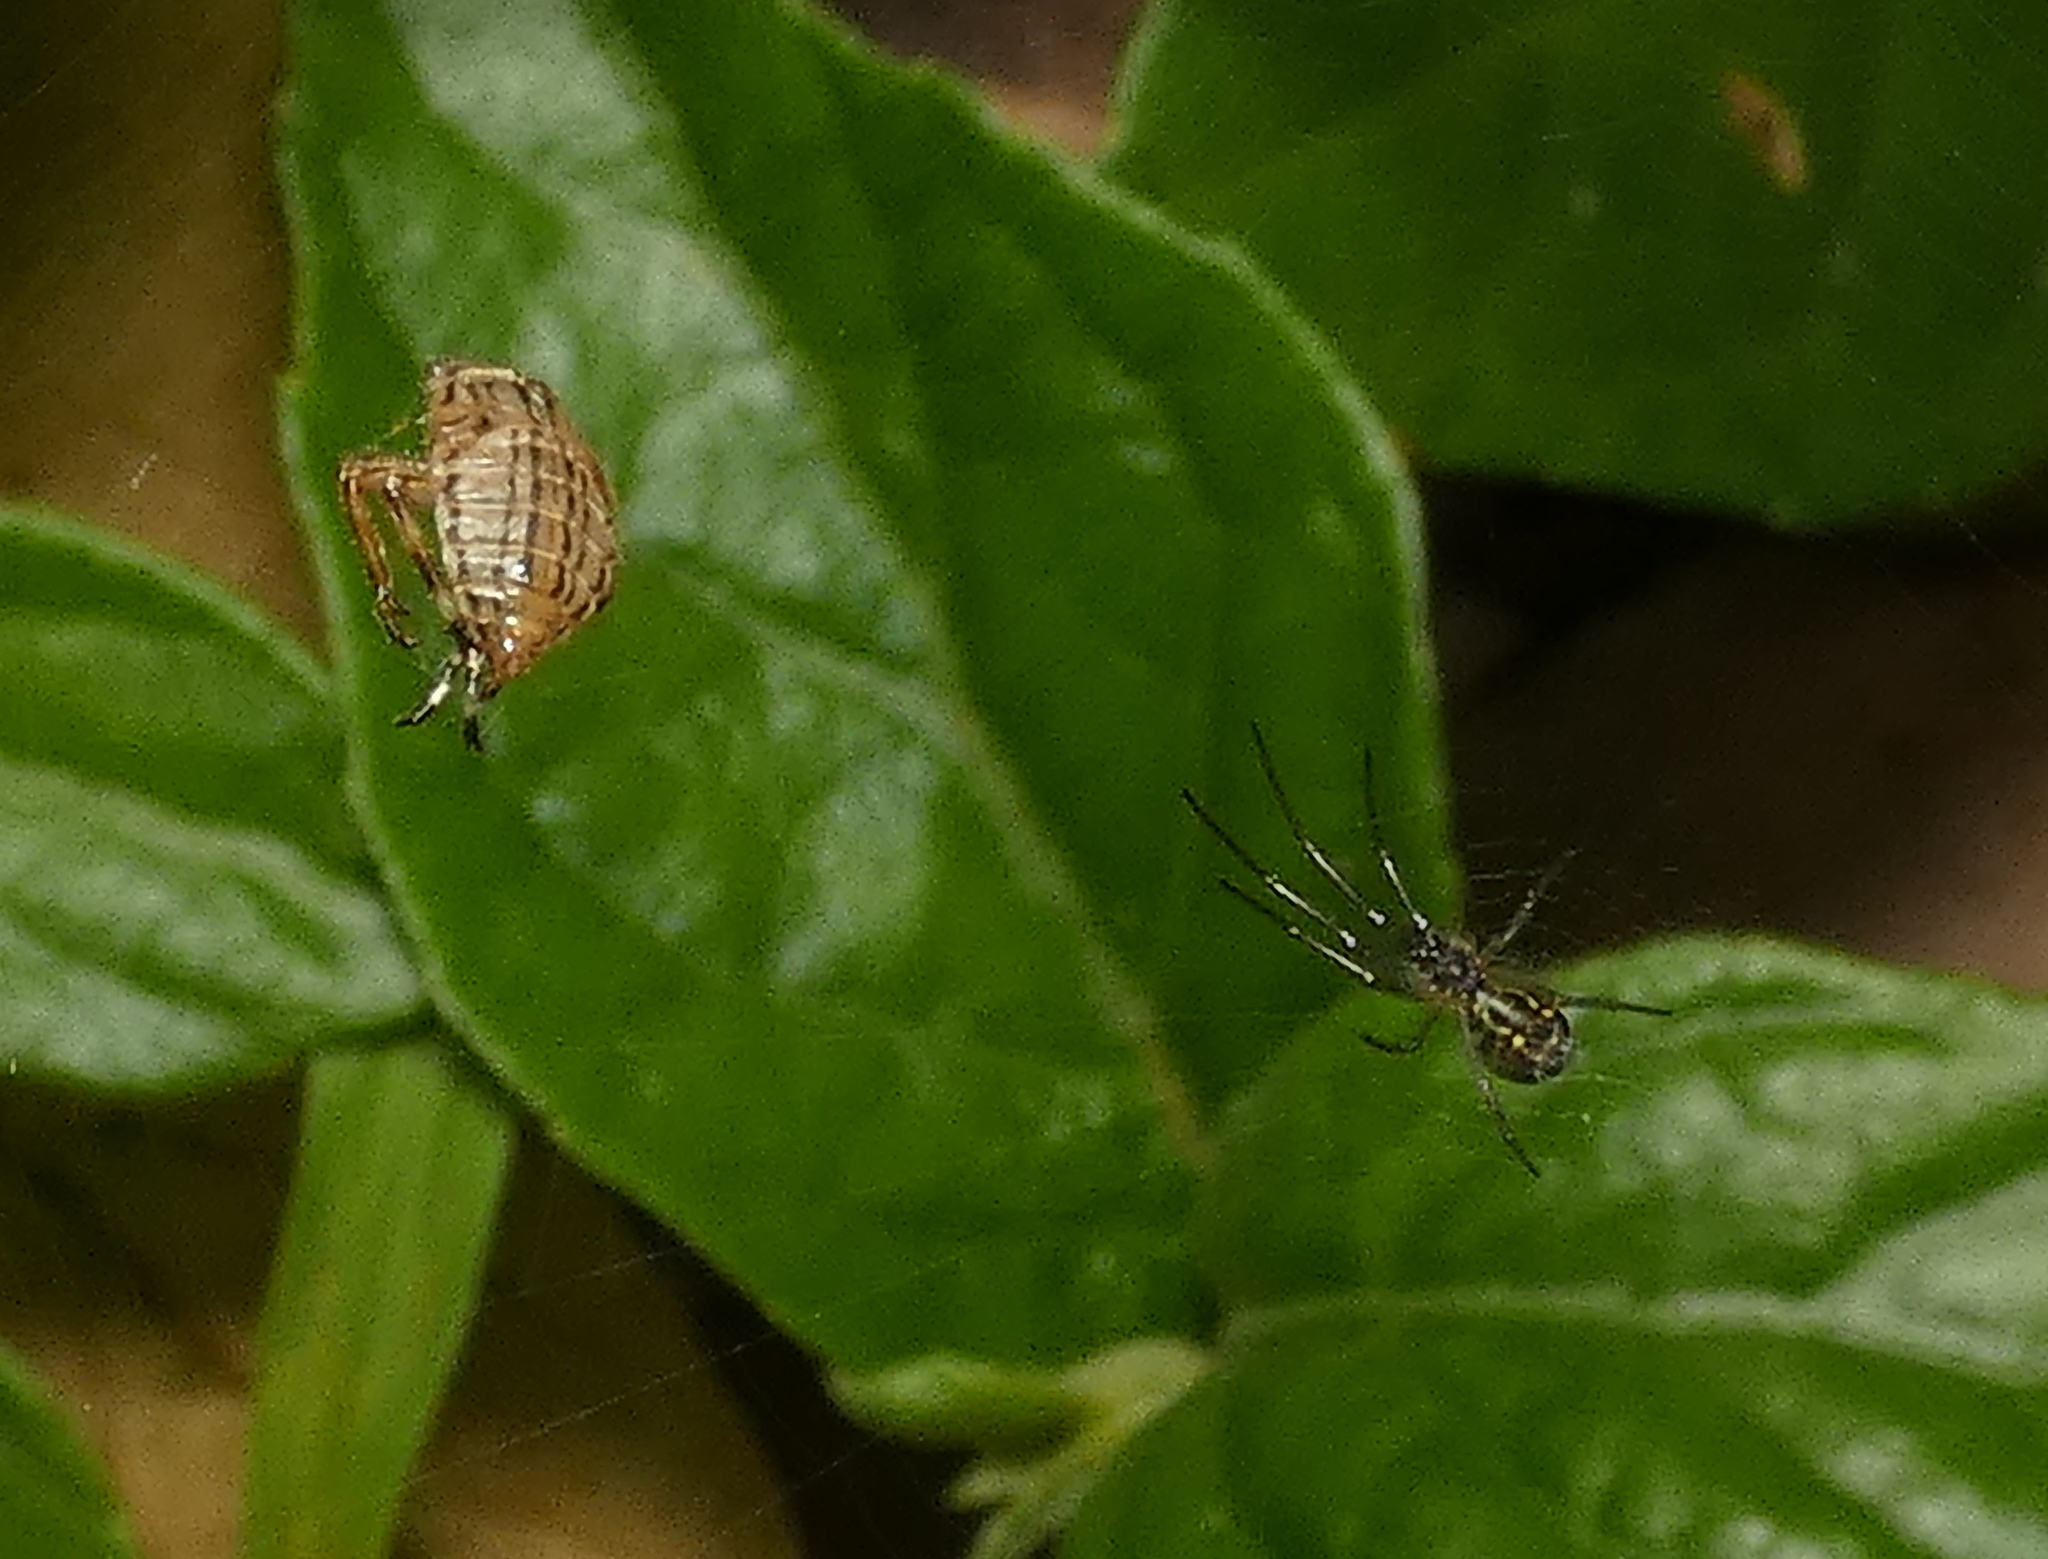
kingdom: Animalia
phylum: Arthropoda
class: Insecta
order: Hemiptera
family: Aetalionidae
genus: Aetalion
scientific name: Aetalion reticulatum
